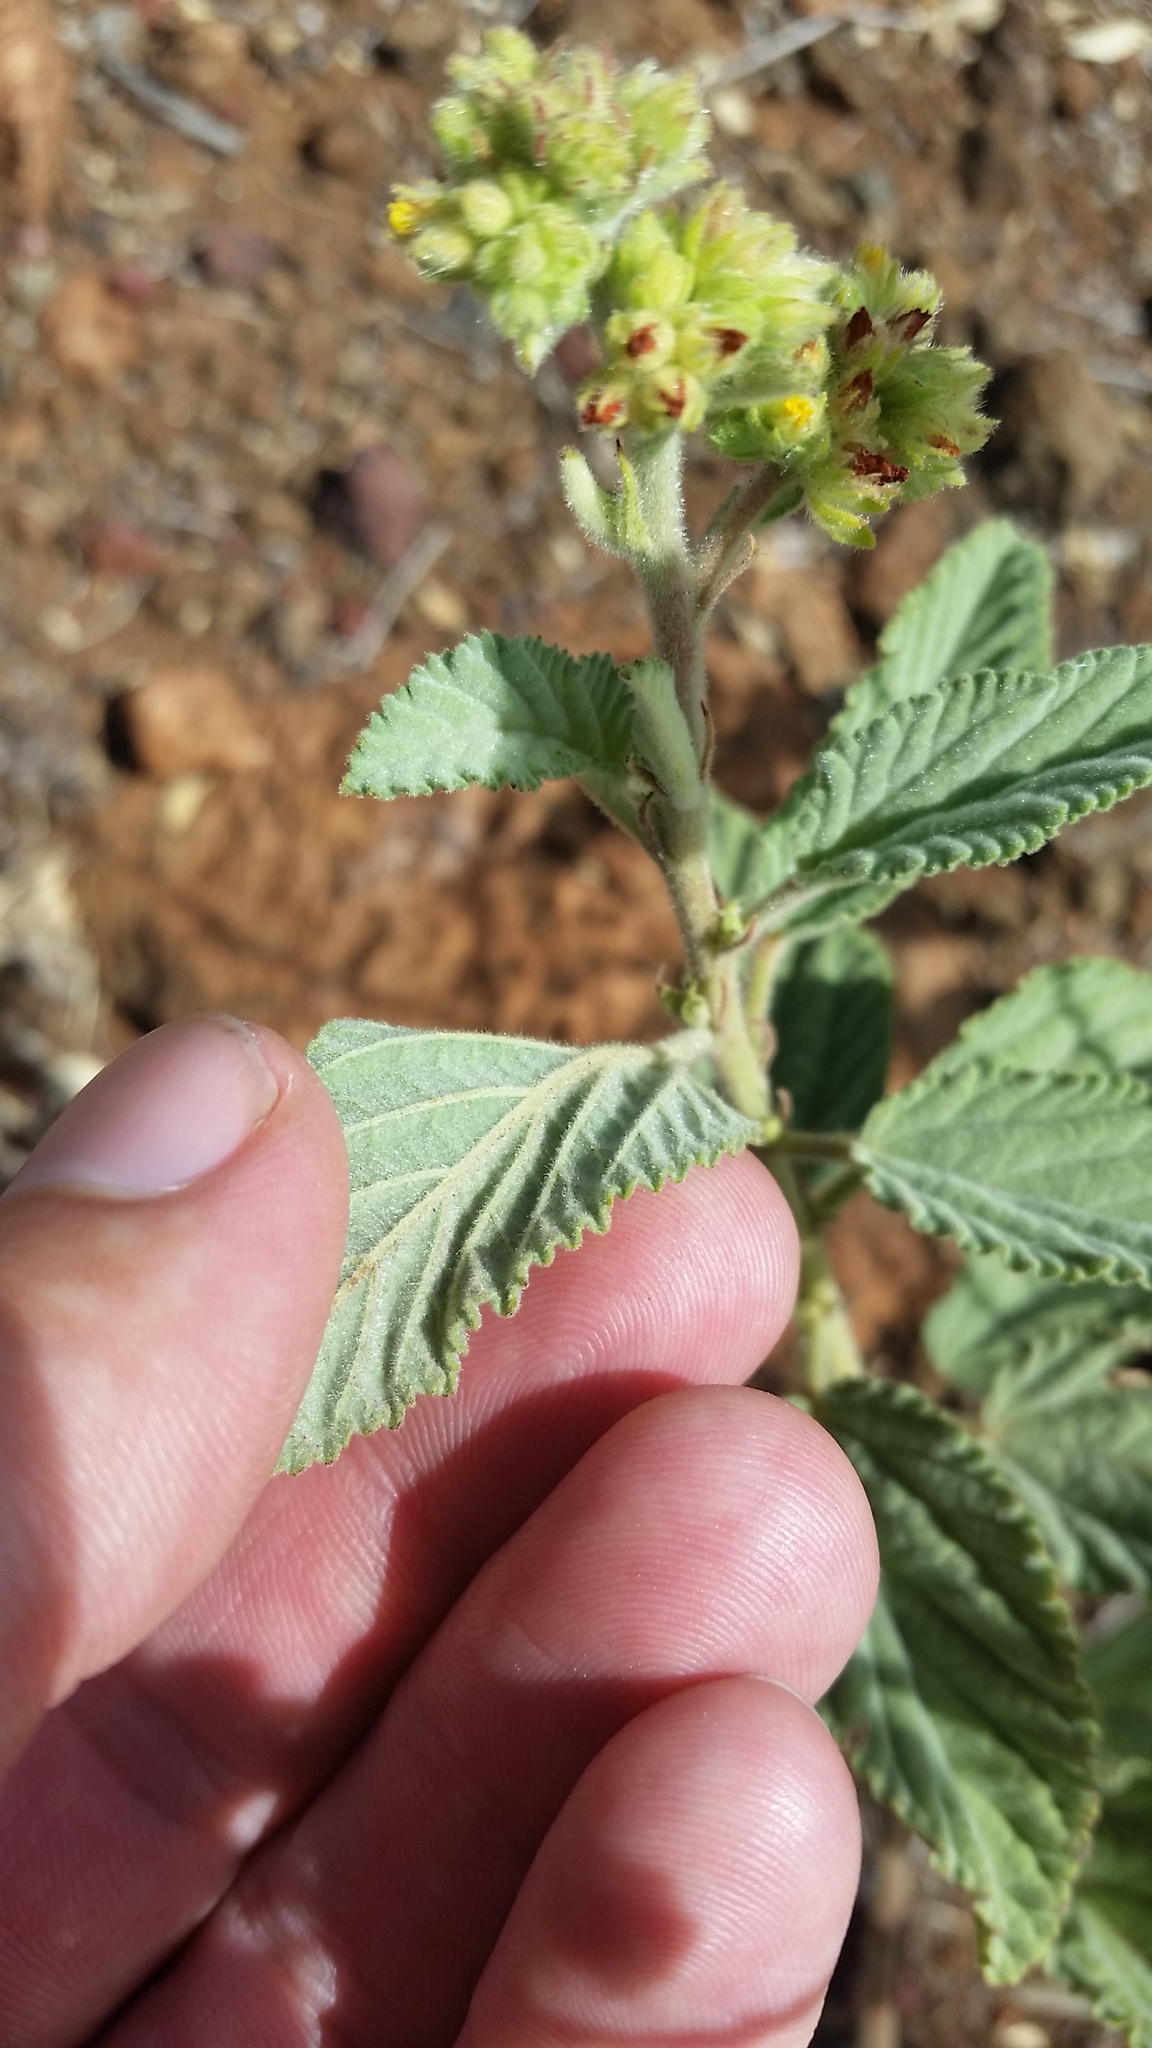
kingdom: Plantae
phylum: Tracheophyta
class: Magnoliopsida
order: Malvales
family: Malvaceae
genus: Waltheria
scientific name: Waltheria indica
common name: Leather-coat
